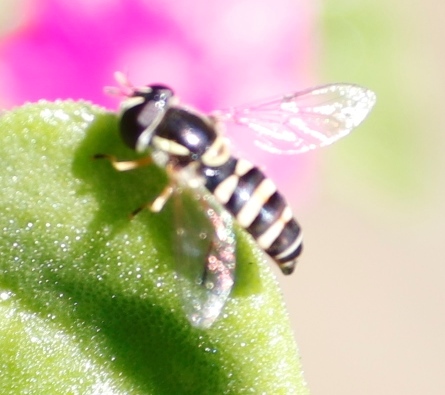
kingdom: Animalia
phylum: Arthropoda
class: Insecta
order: Diptera
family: Syrphidae
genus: Ischiodon
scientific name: Ischiodon aegyptius
